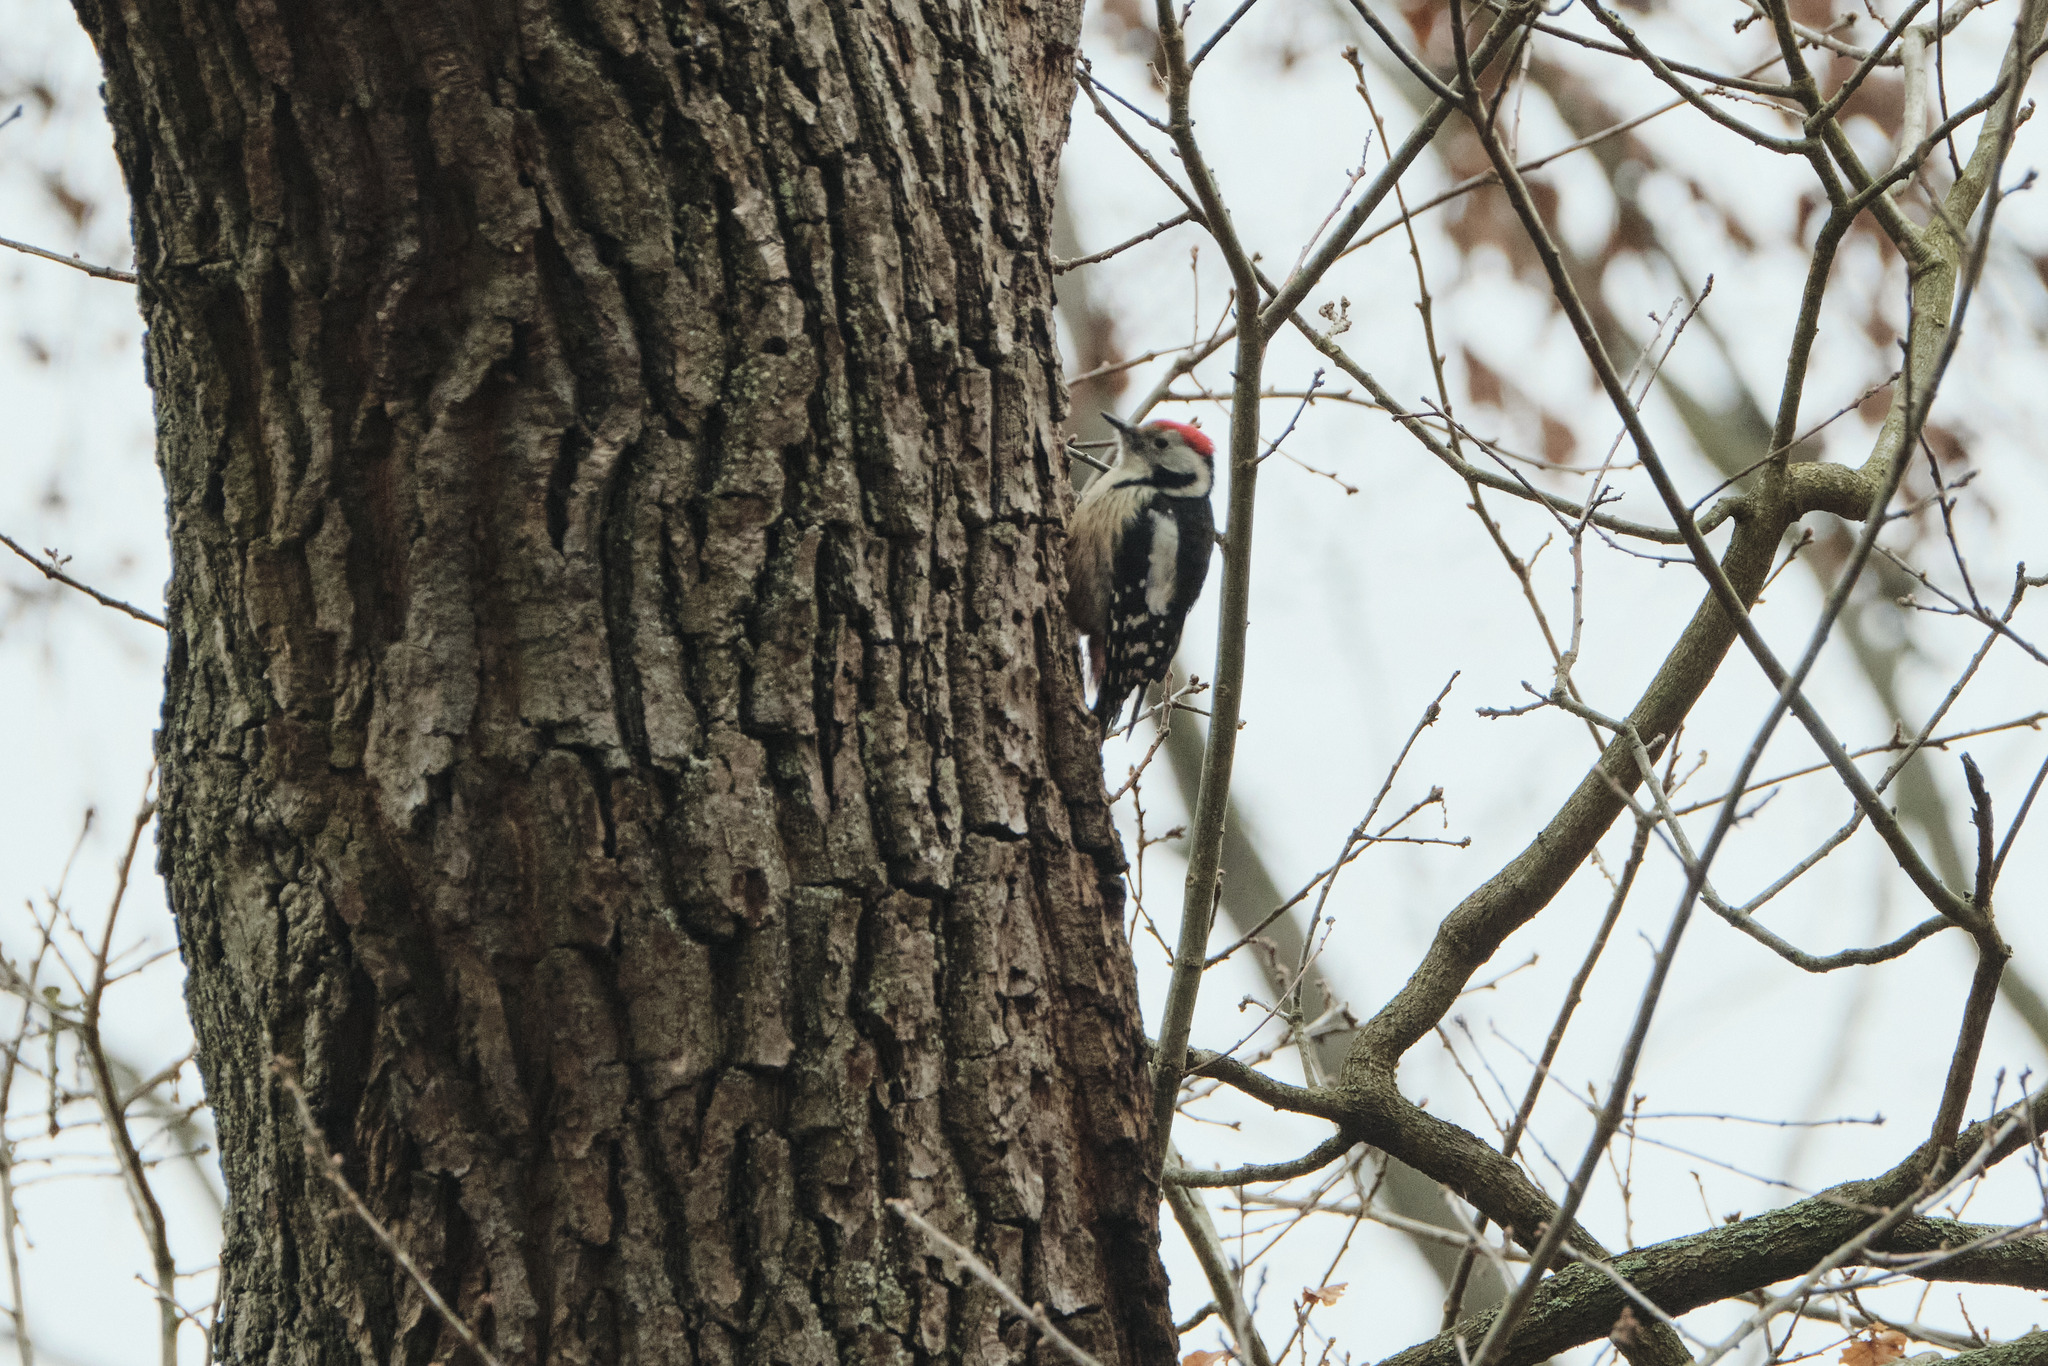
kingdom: Animalia
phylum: Chordata
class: Aves
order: Piciformes
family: Picidae
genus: Dendrocoptes
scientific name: Dendrocoptes medius
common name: Middle spotted woodpecker
